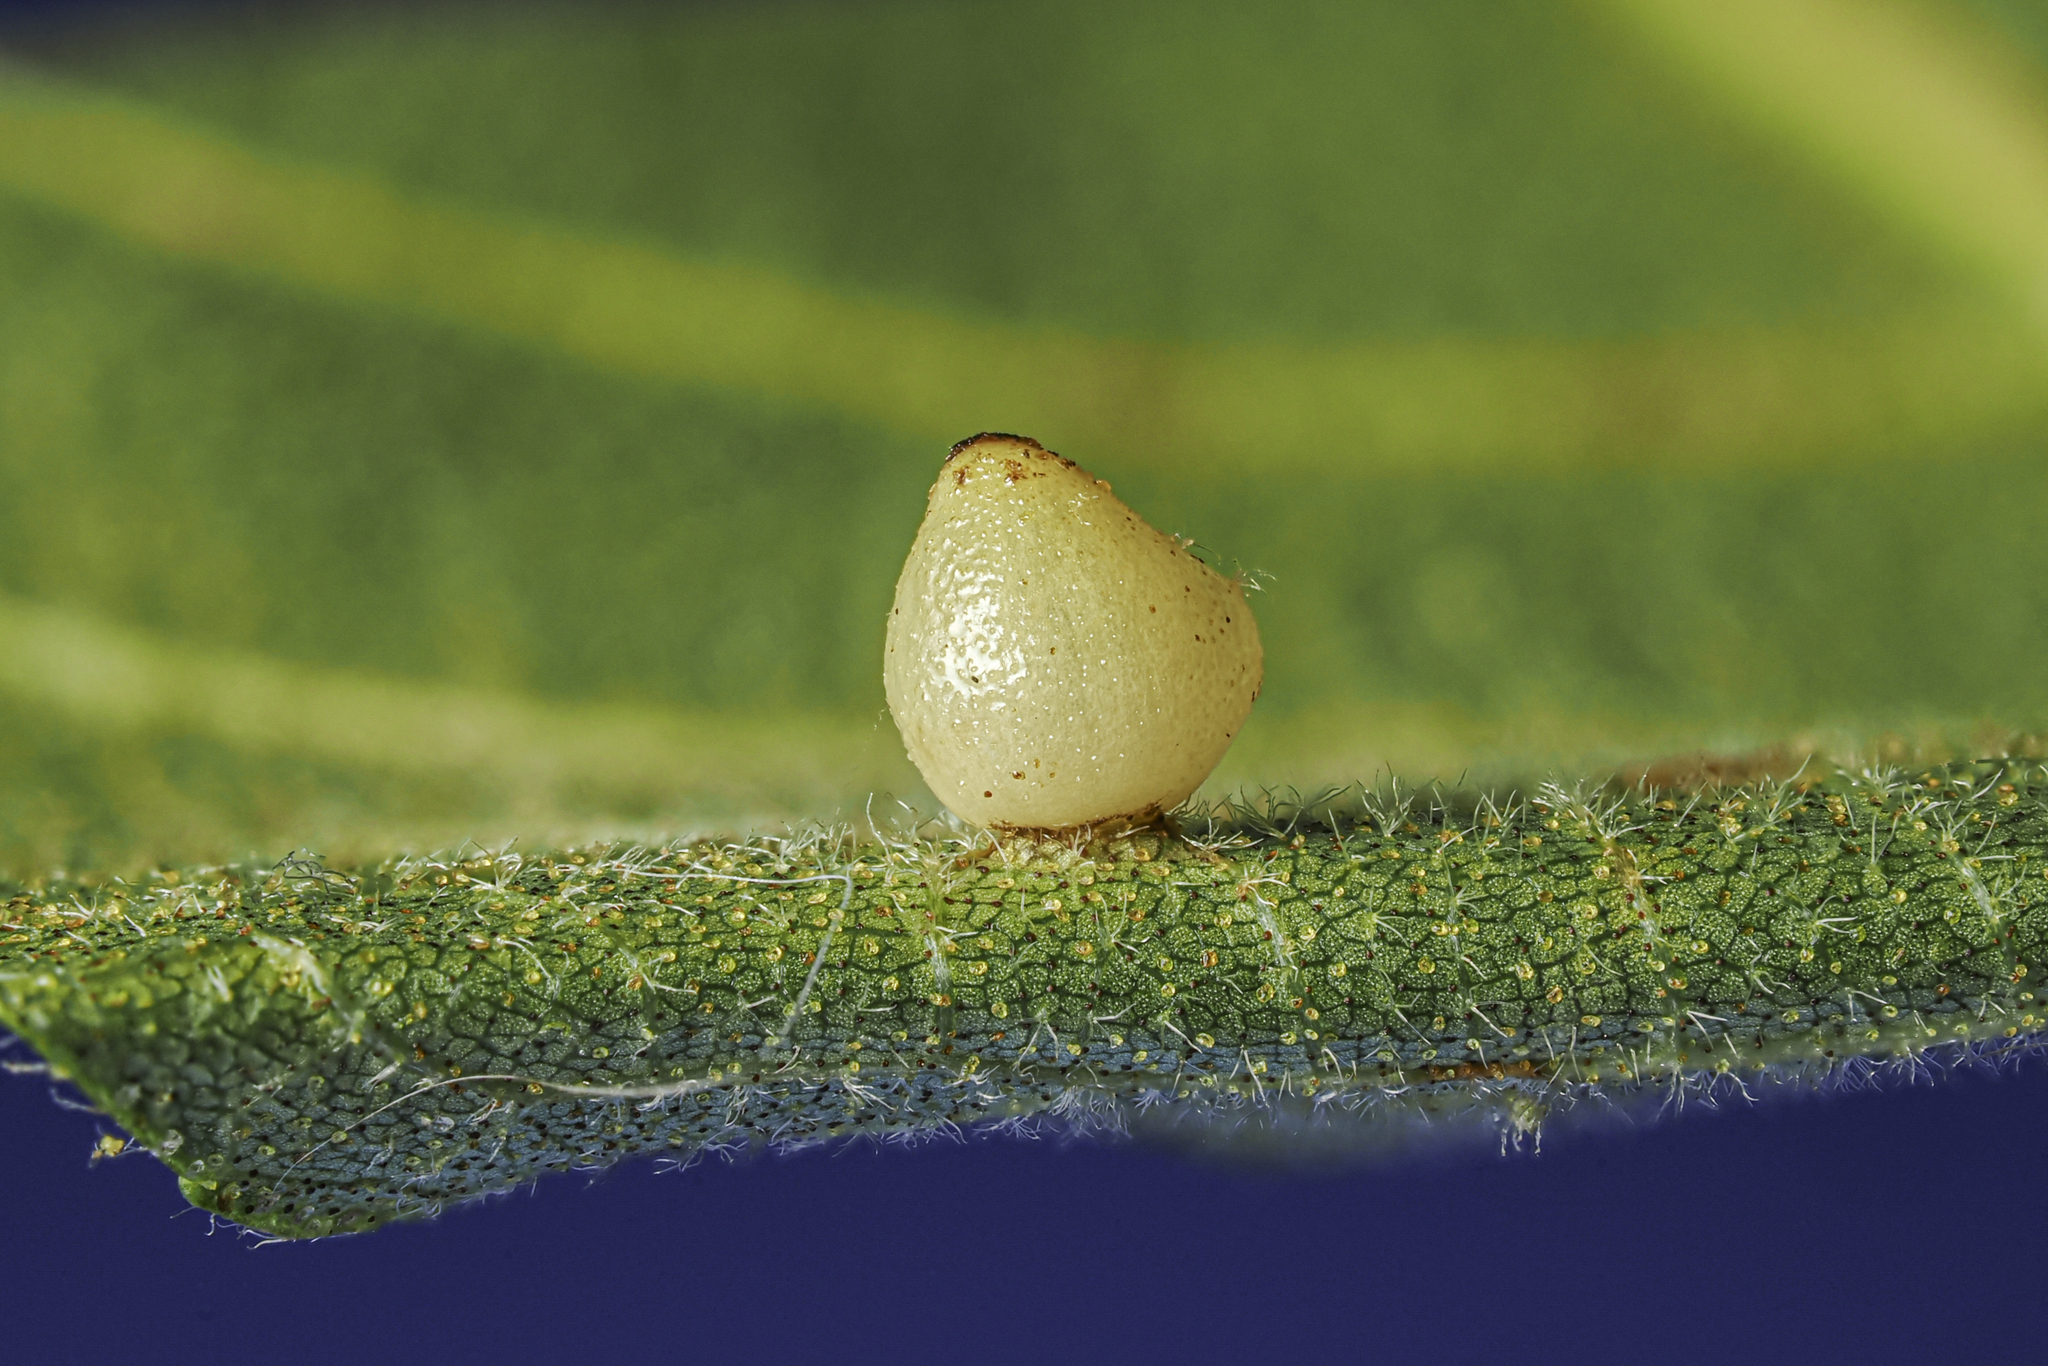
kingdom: Animalia
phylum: Arthropoda
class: Insecta
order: Diptera
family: Cecidomyiidae
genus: Caryomyia
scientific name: Caryomyia shmoo
